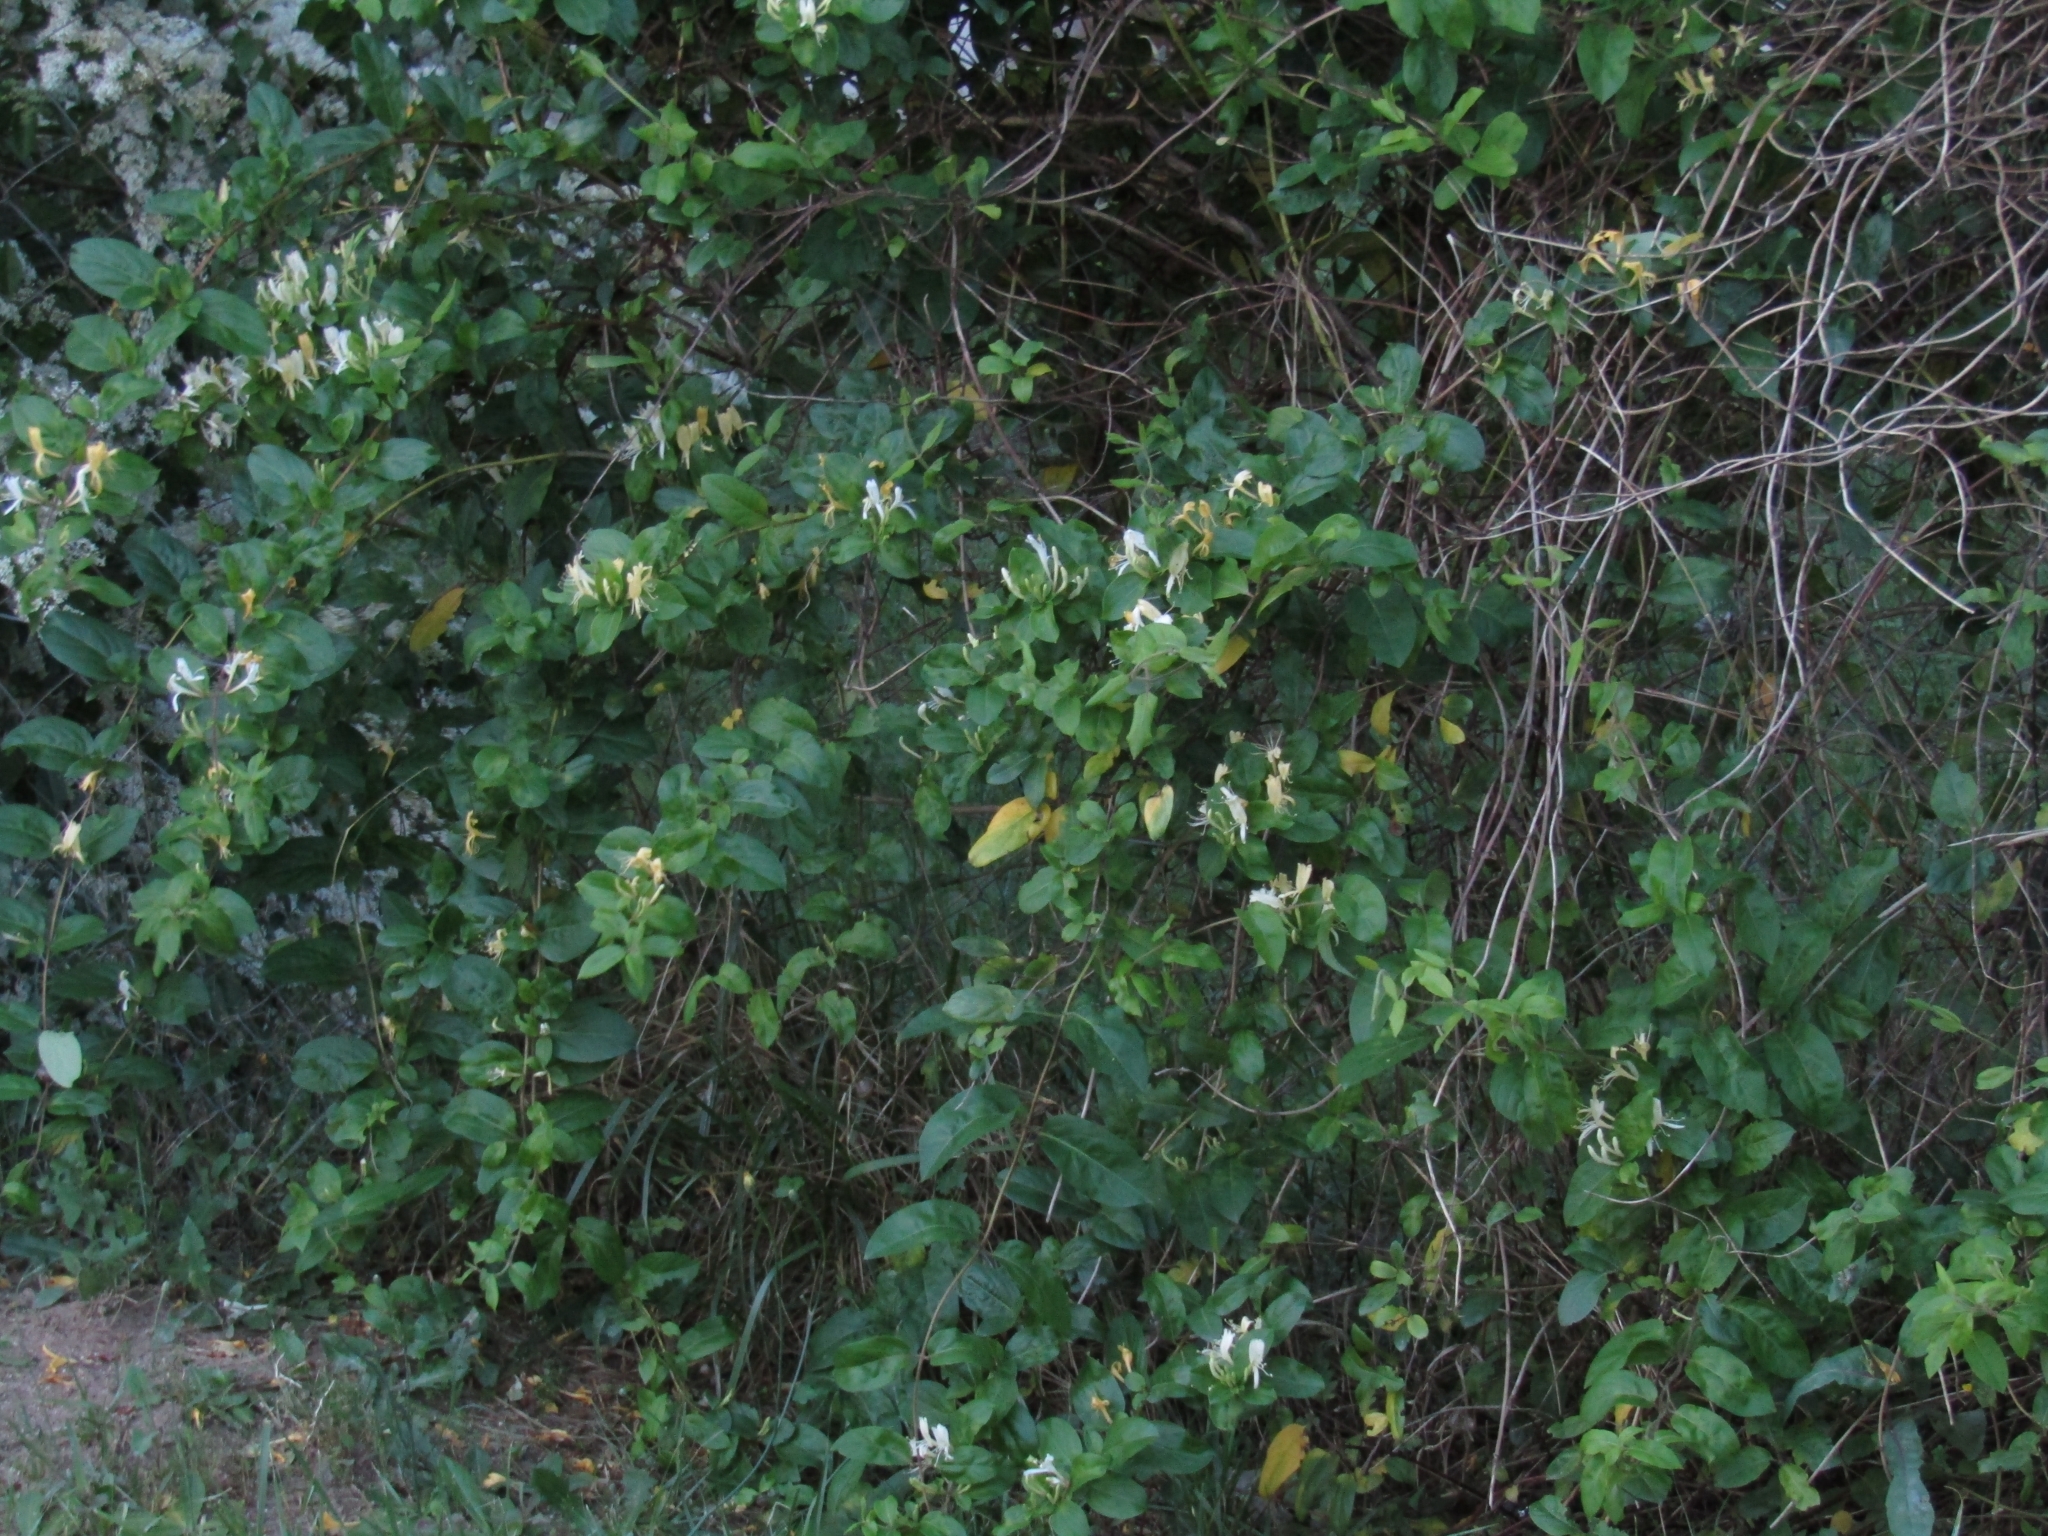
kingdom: Plantae
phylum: Tracheophyta
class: Magnoliopsida
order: Dipsacales
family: Caprifoliaceae
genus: Lonicera
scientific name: Lonicera japonica
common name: Japanese honeysuckle
